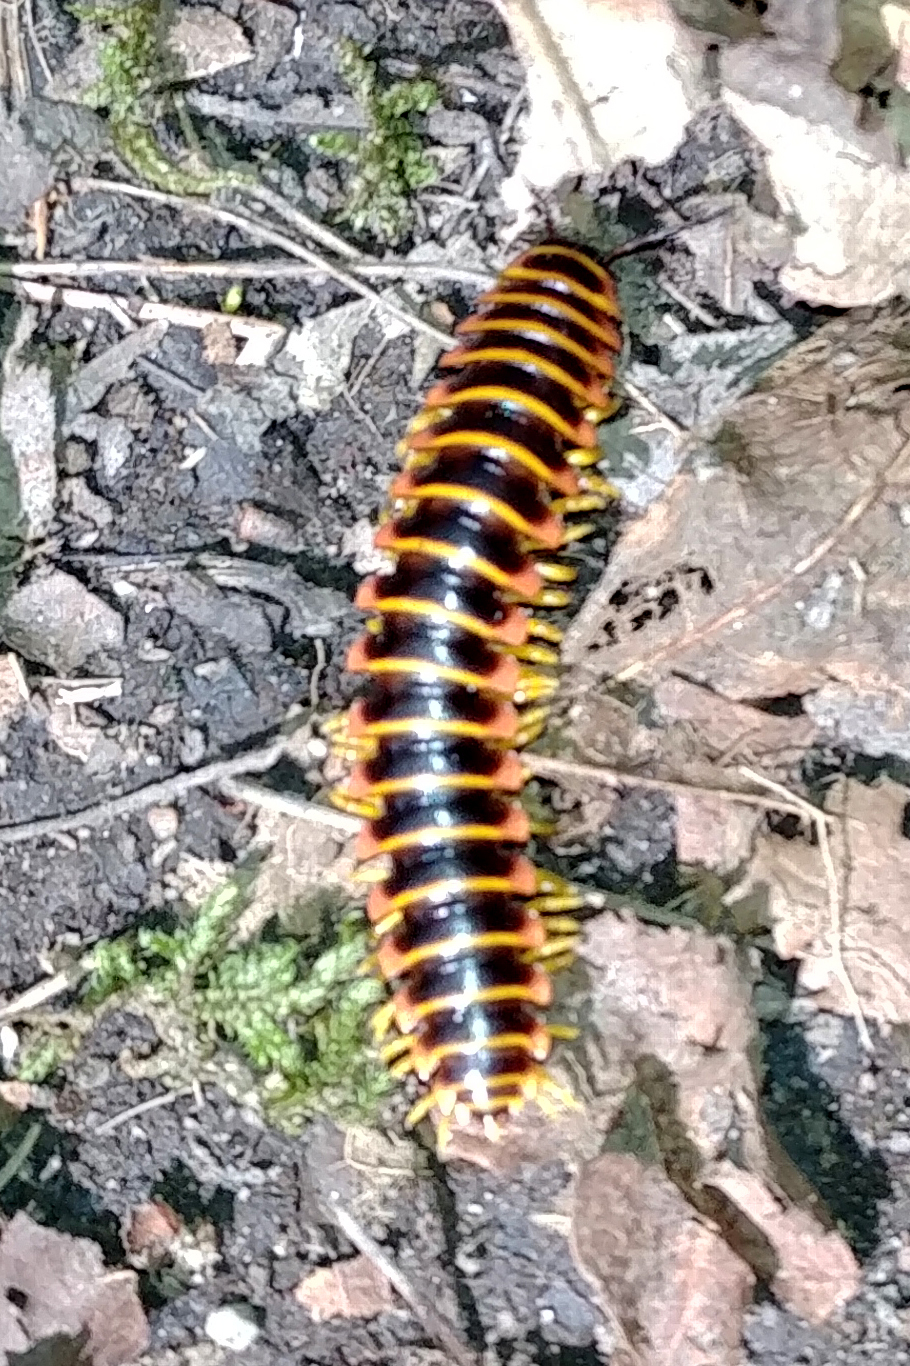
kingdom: Animalia
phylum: Arthropoda
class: Diplopoda
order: Polydesmida
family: Xystodesmidae
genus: Apheloria
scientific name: Apheloria virginiensis
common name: Black-and-gold flat millipede
